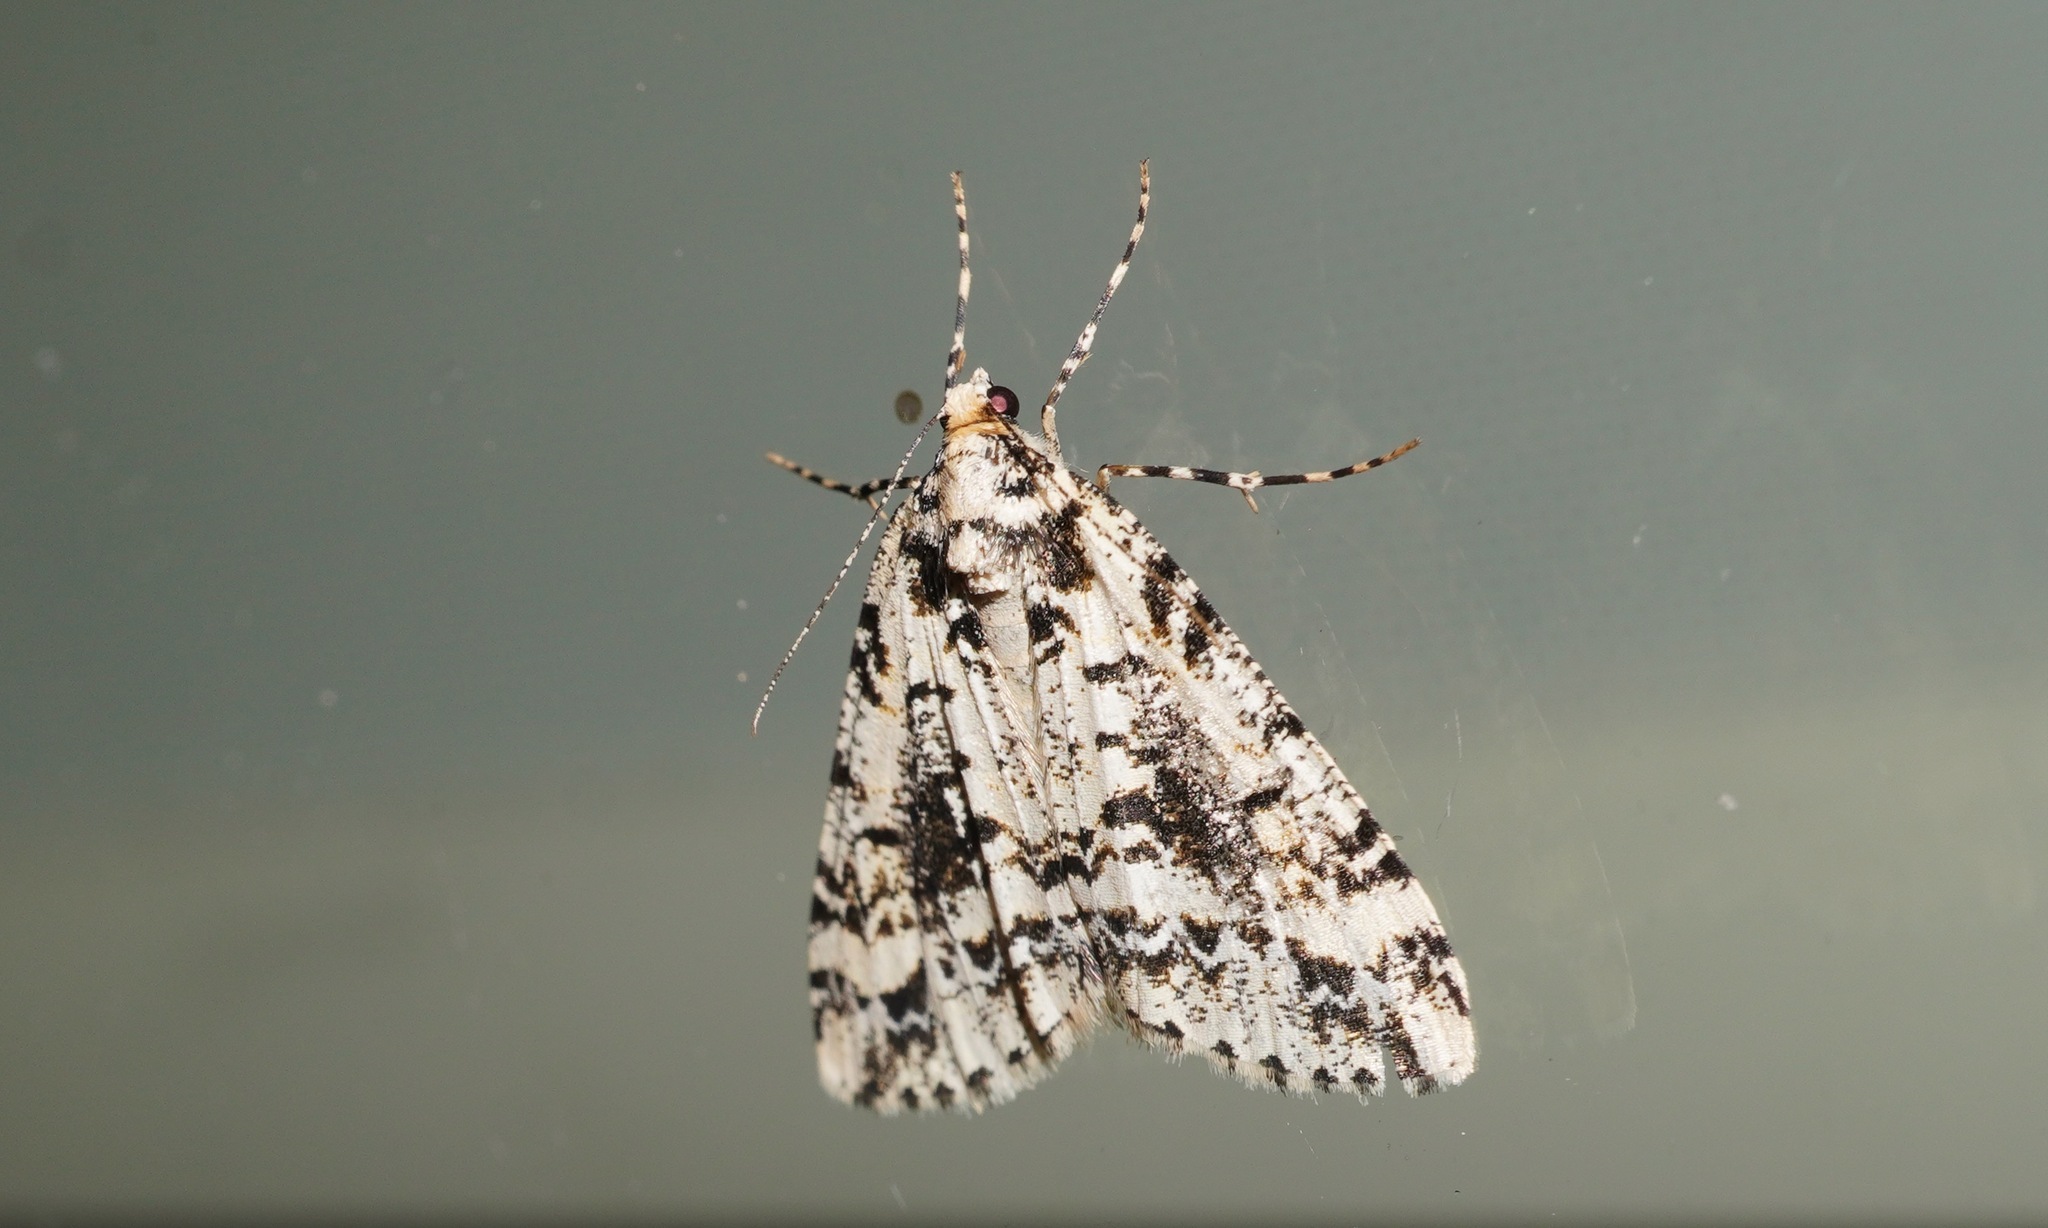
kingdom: Animalia
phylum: Arthropoda
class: Insecta
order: Lepidoptera
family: Geometridae
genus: Pseudocoremia
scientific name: Pseudocoremia leucelaea
